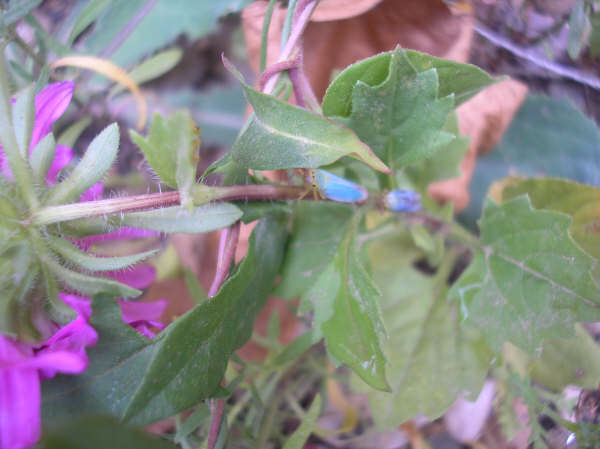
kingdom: Animalia
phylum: Arthropoda
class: Insecta
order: Hemiptera
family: Cicadellidae
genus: Cicadella
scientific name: Cicadella viridis
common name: Leafhopper
